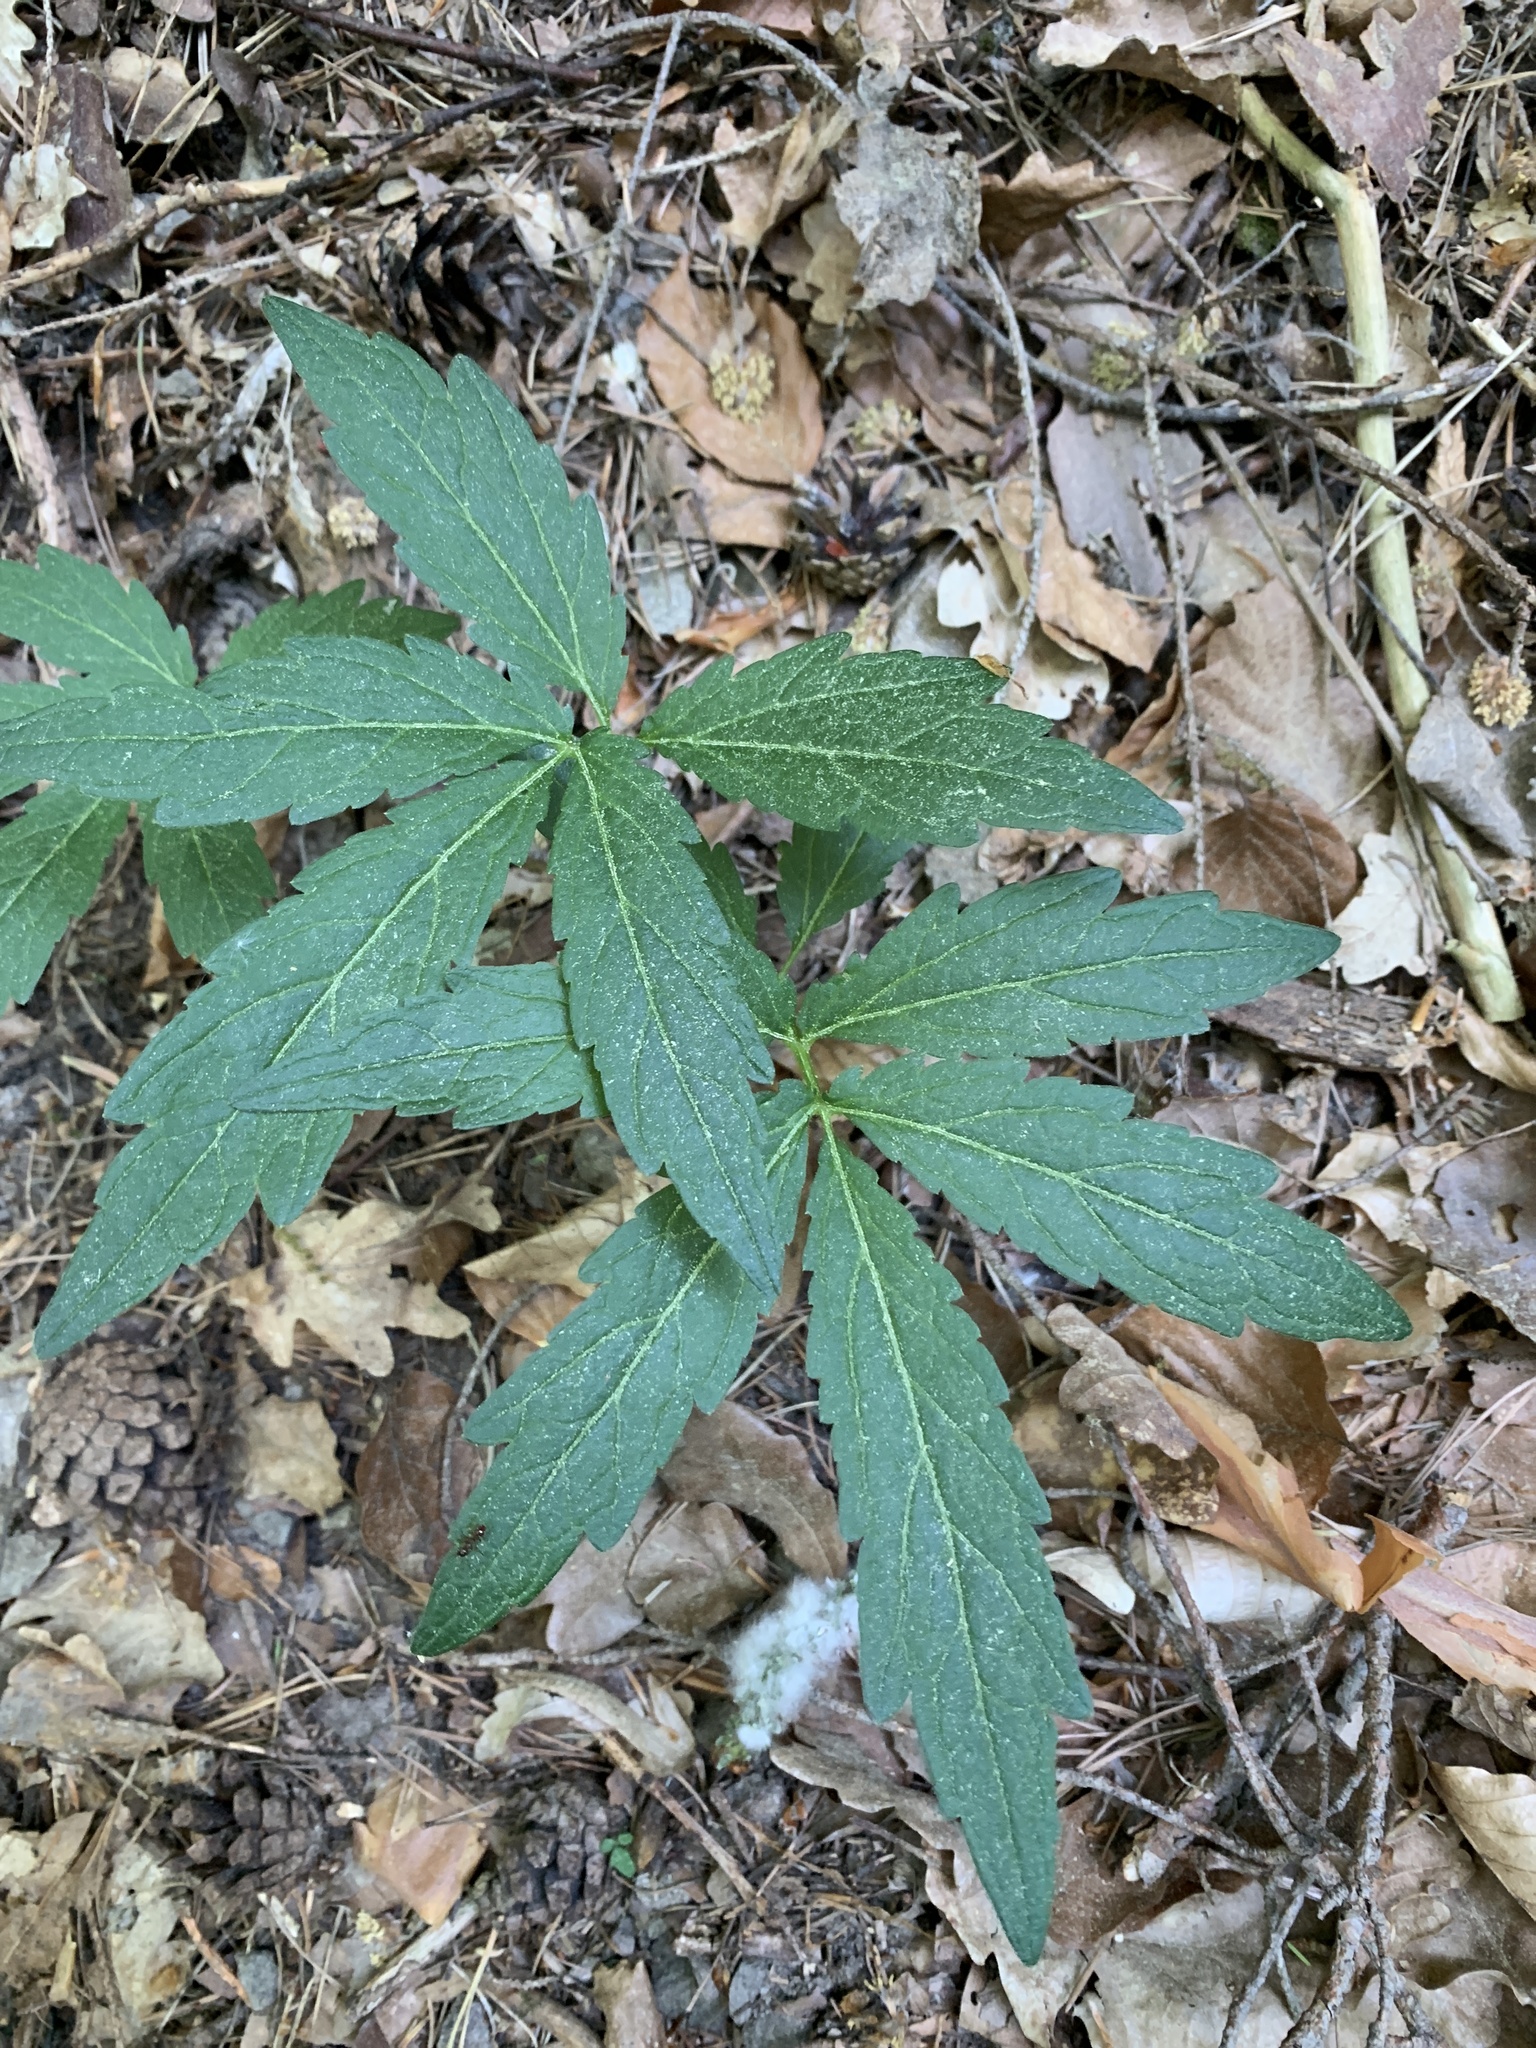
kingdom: Plantae
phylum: Tracheophyta
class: Magnoliopsida
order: Brassicales
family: Brassicaceae
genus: Cardamine
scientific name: Cardamine bulbifera
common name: Coralroot bittercress
